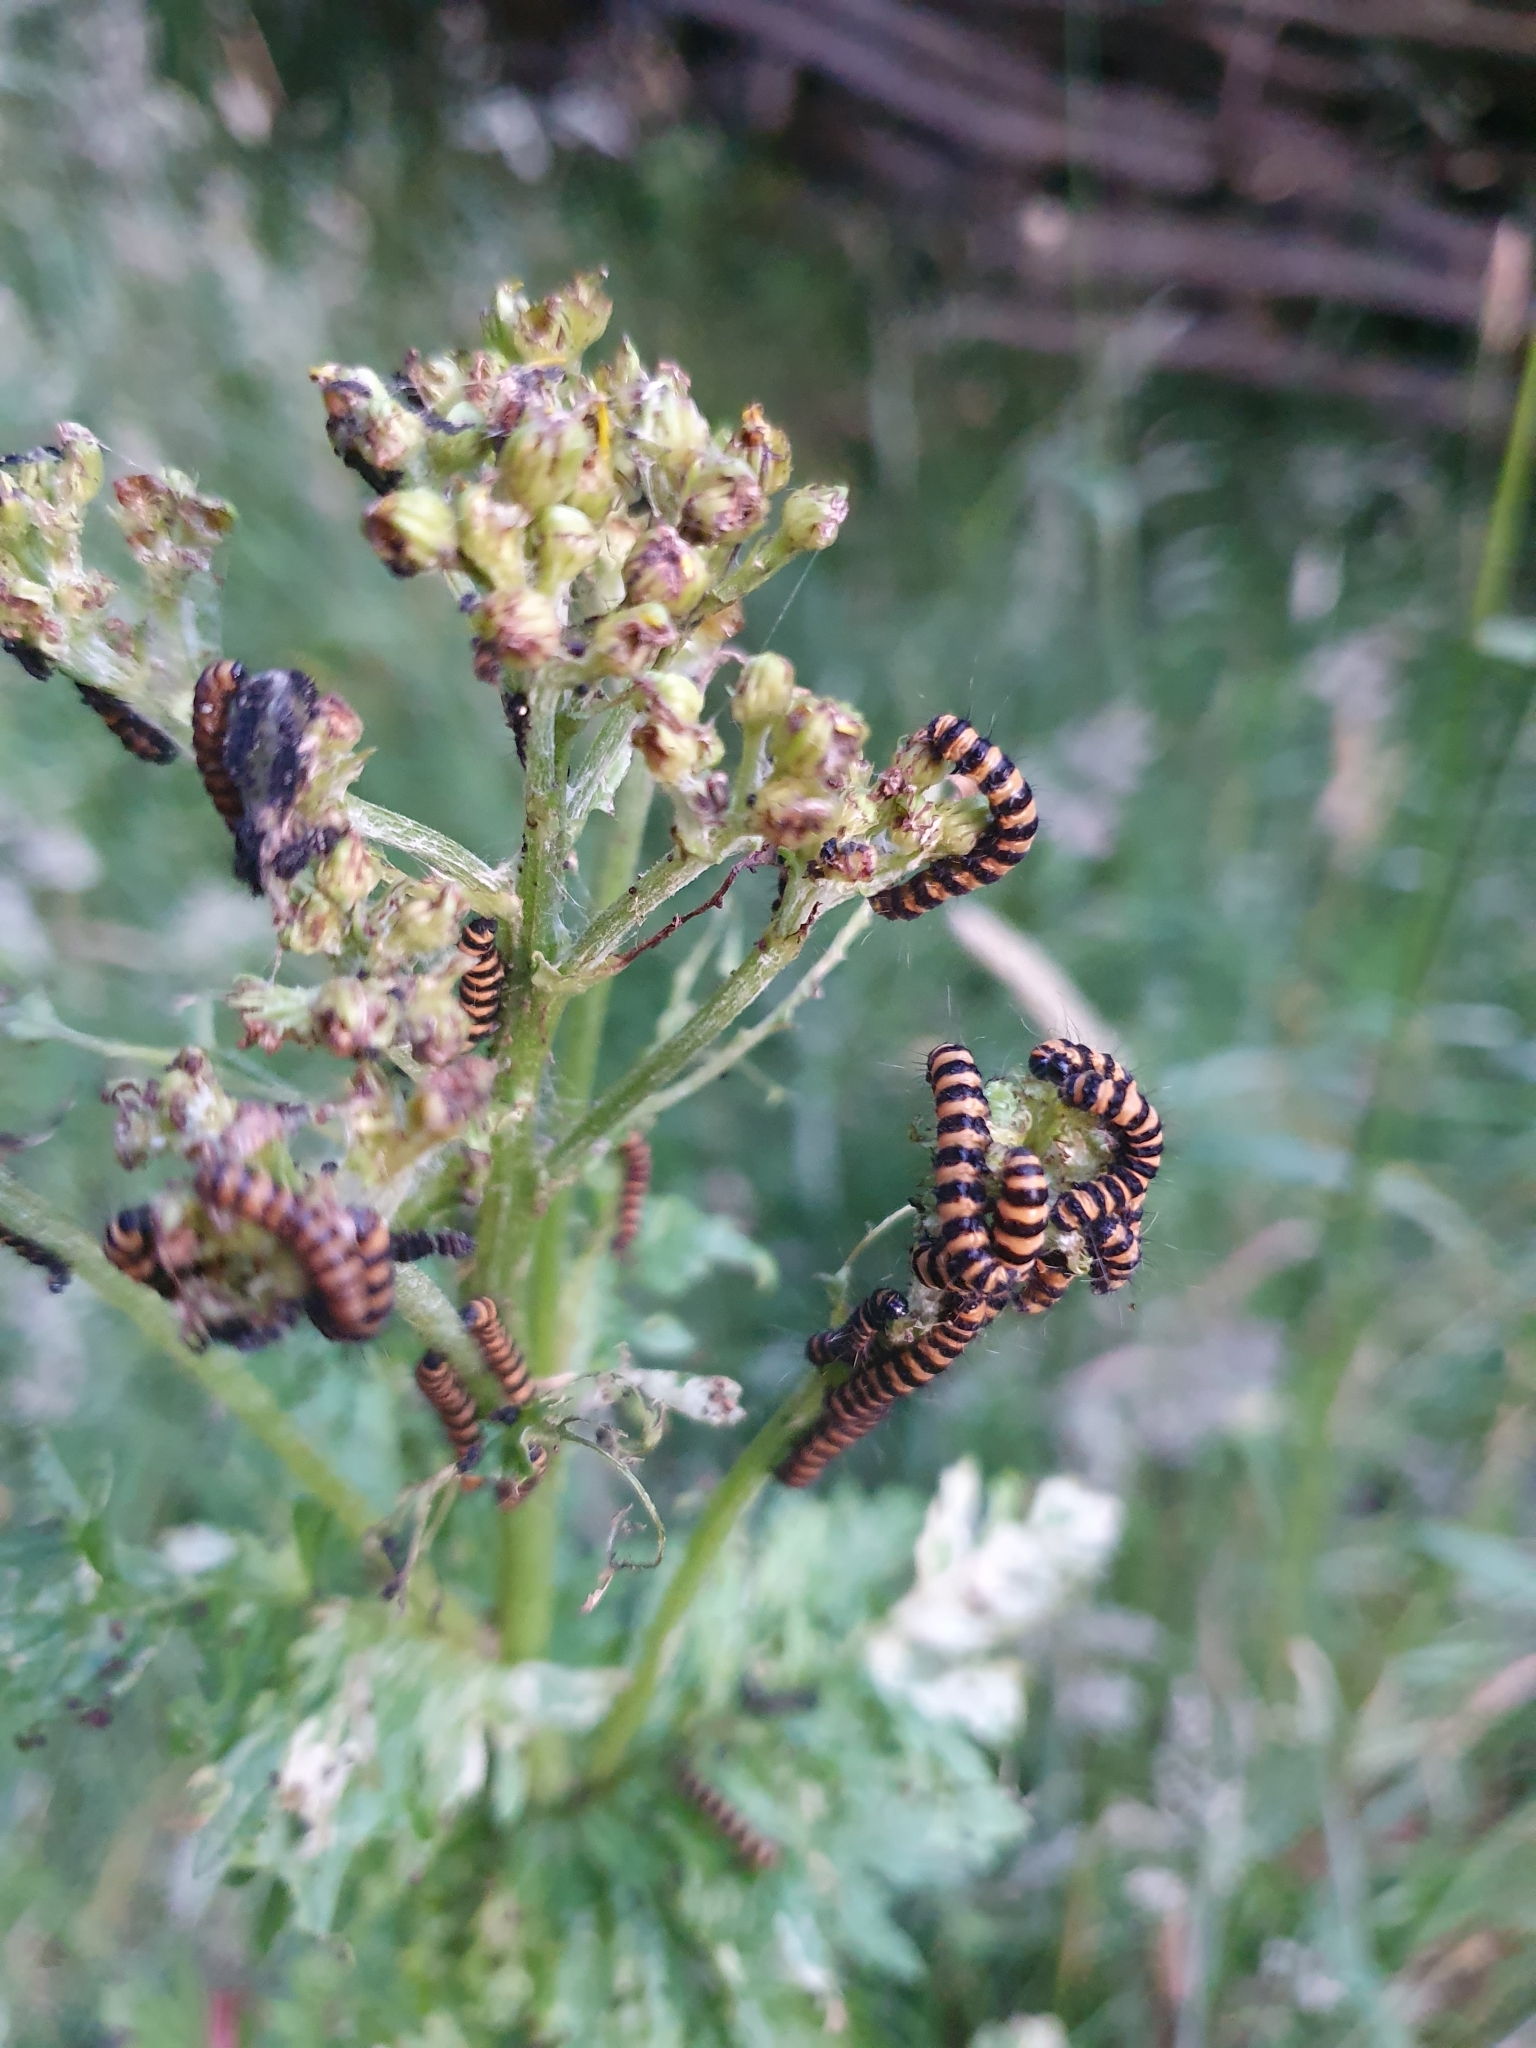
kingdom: Animalia
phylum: Arthropoda
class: Insecta
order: Lepidoptera
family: Erebidae
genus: Tyria
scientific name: Tyria jacobaeae
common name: Cinnabar
